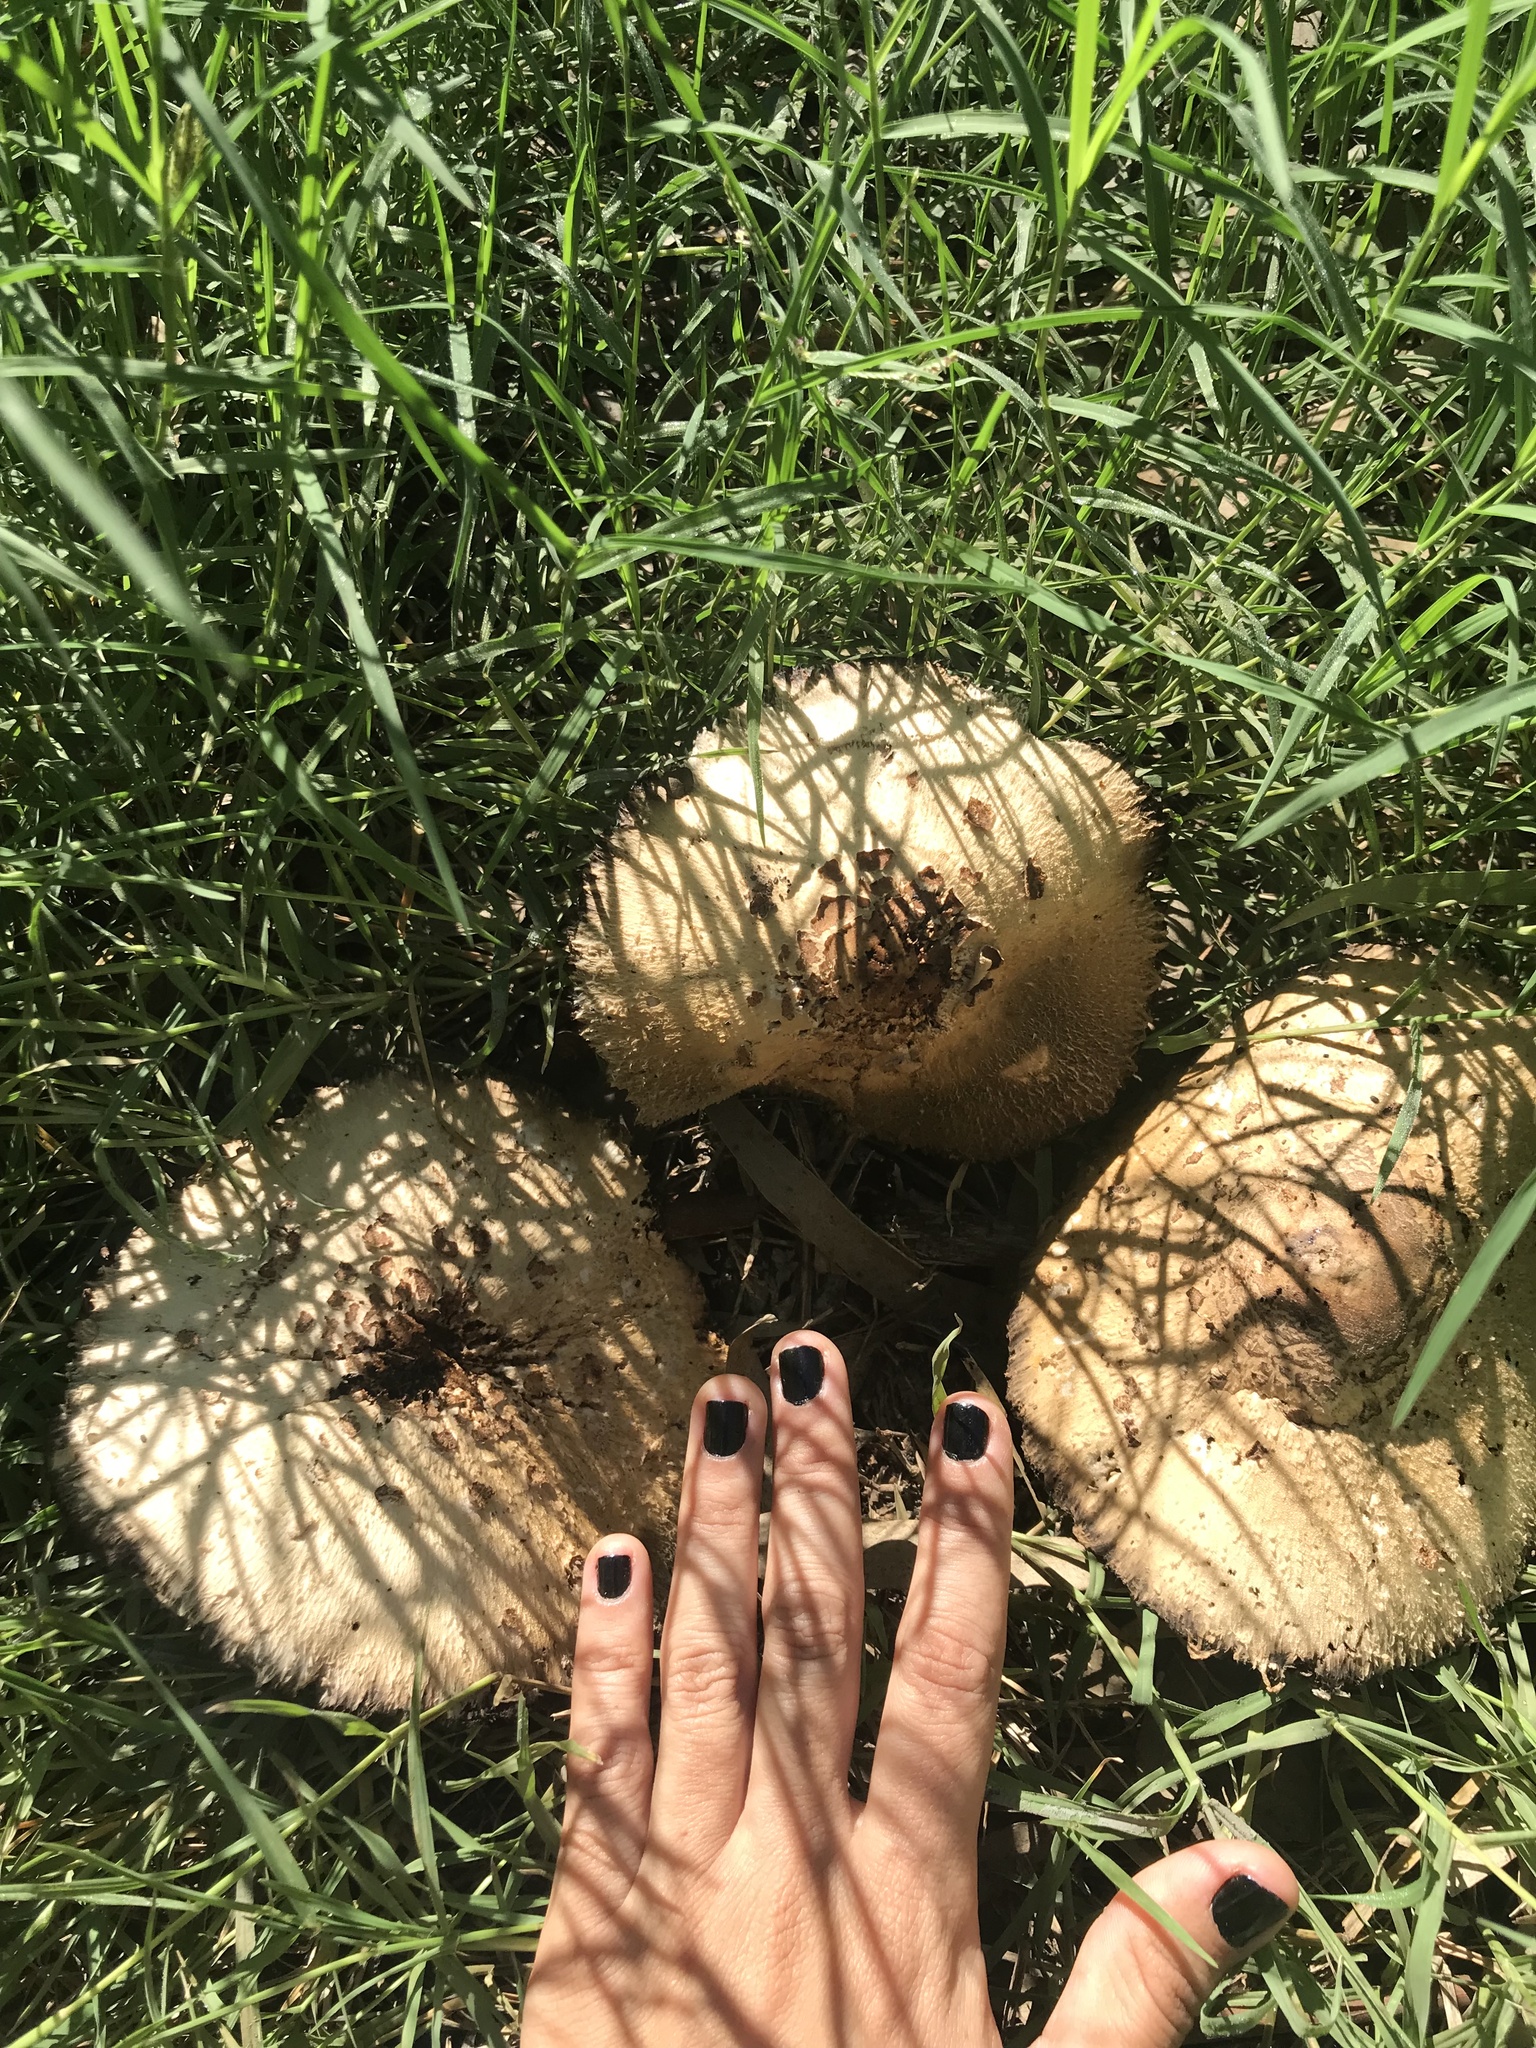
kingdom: Fungi
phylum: Basidiomycota
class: Agaricomycetes
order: Agaricales
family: Agaricaceae
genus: Chlorophyllum
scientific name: Chlorophyllum molybdites
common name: False parasol
